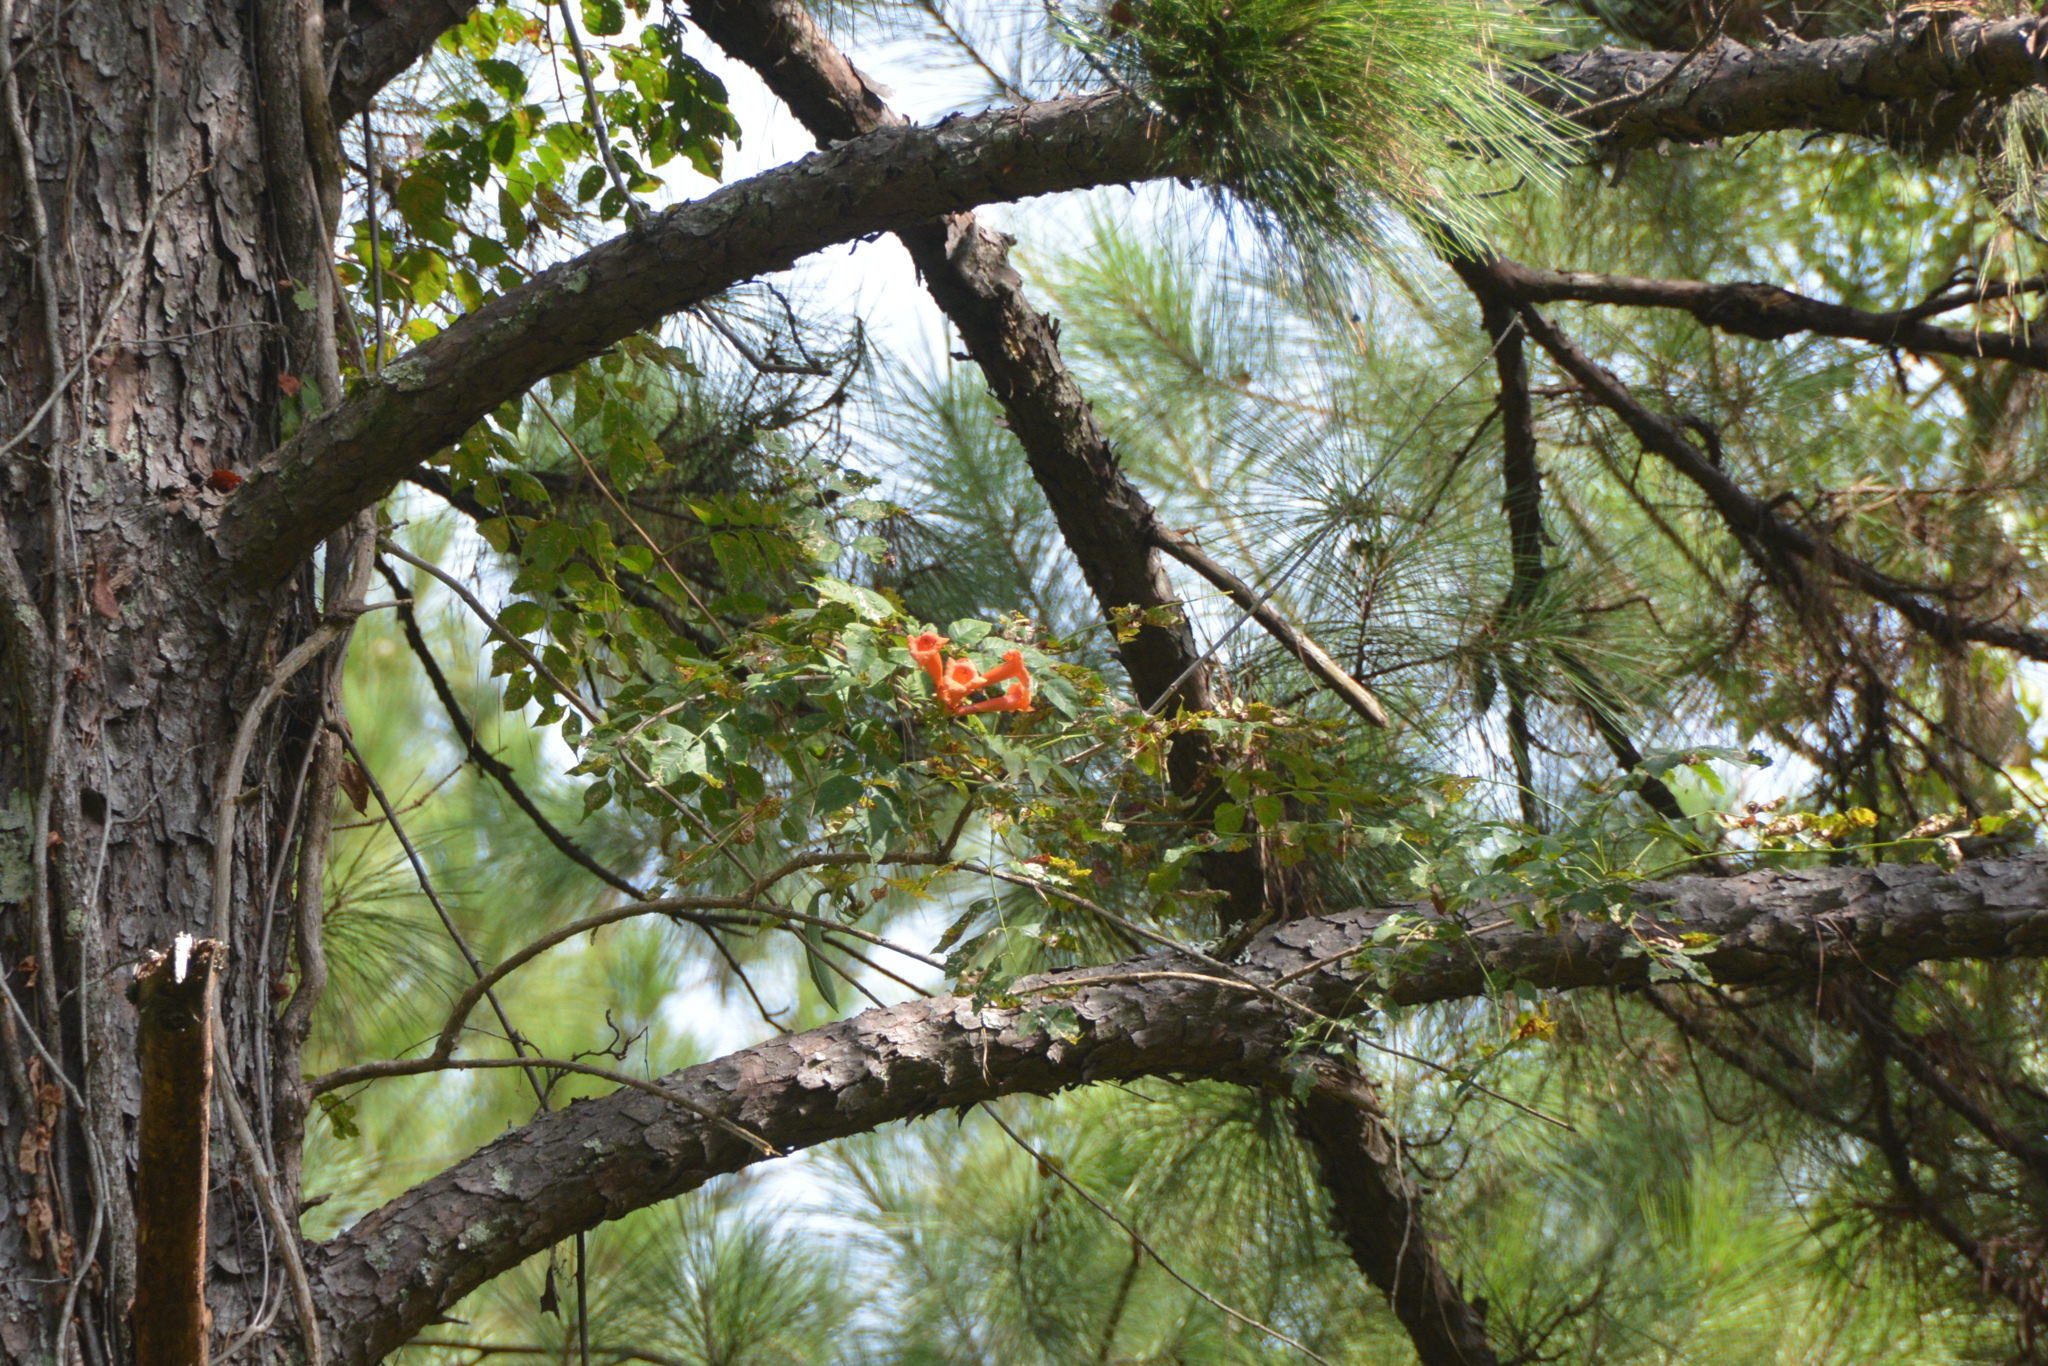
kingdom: Plantae
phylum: Tracheophyta
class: Magnoliopsida
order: Lamiales
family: Bignoniaceae
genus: Campsis
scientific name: Campsis radicans
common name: Trumpet-creeper
